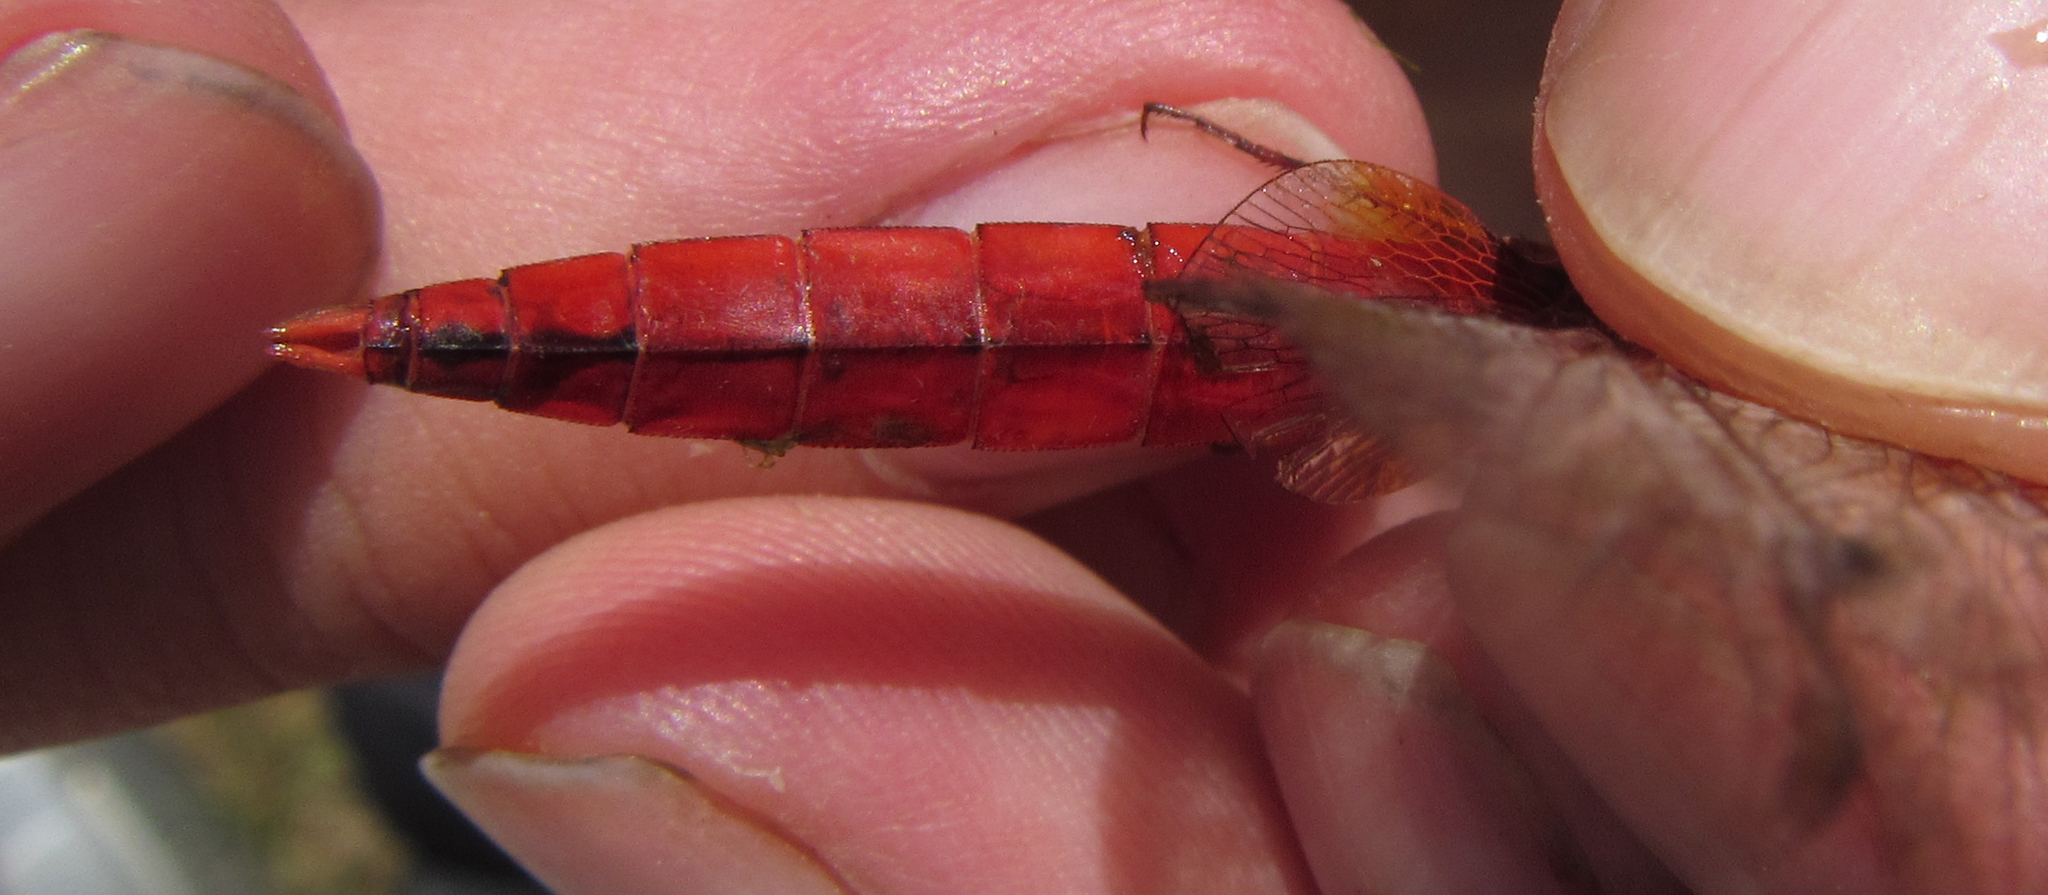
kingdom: Animalia
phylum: Arthropoda
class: Insecta
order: Odonata
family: Libellulidae
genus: Crocothemis
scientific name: Crocothemis erythraea
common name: Scarlet dragonfly
